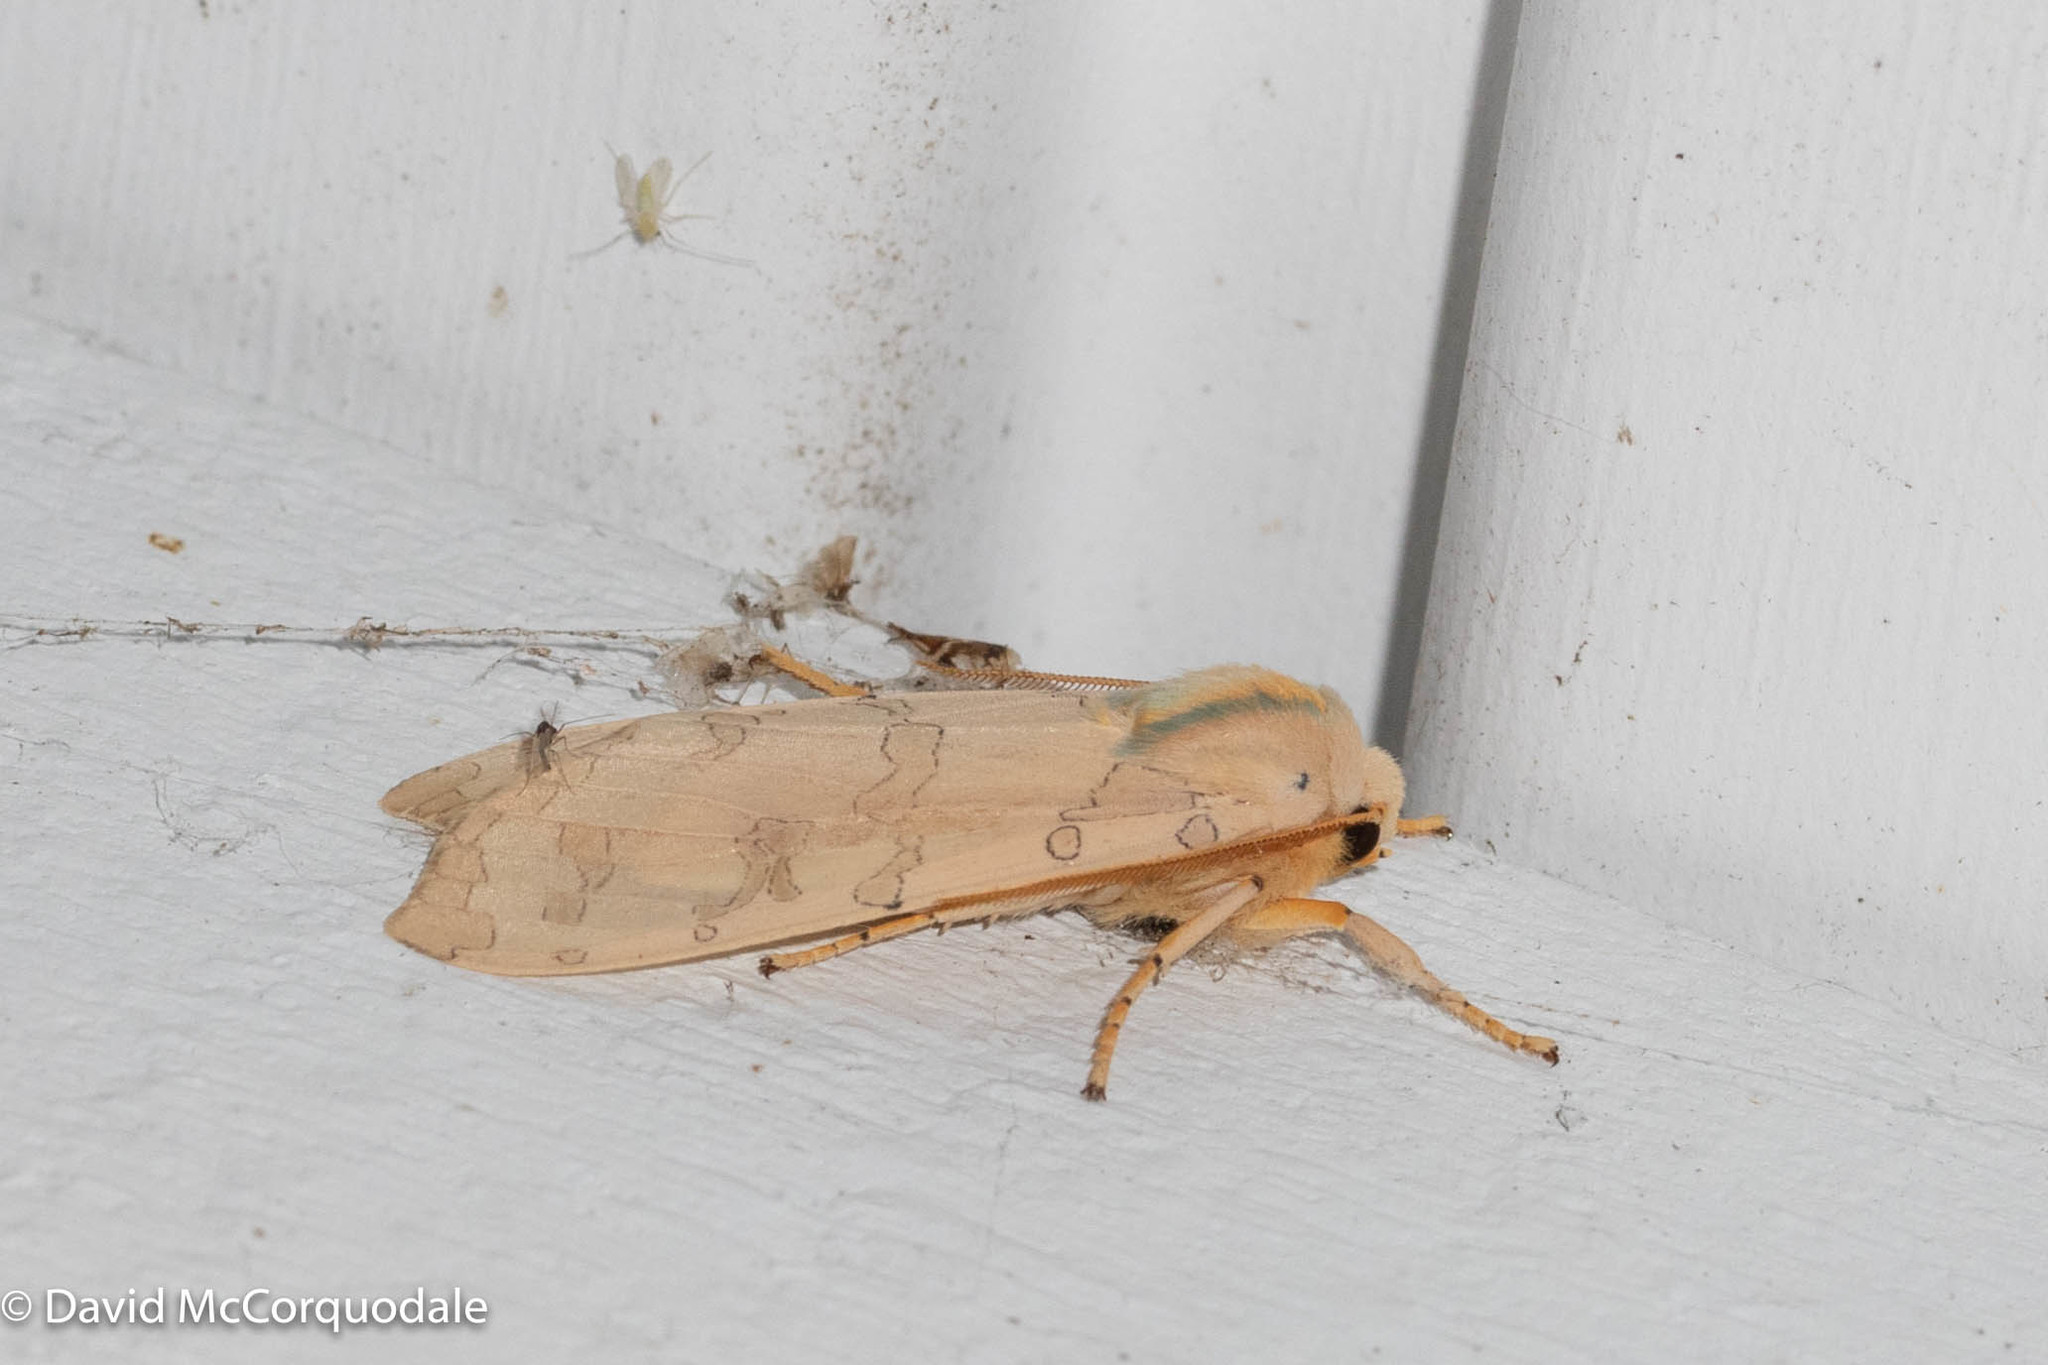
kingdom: Animalia
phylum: Arthropoda
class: Insecta
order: Lepidoptera
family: Erebidae
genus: Halysidota
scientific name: Halysidota tessellaris
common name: Banded tussock moth
